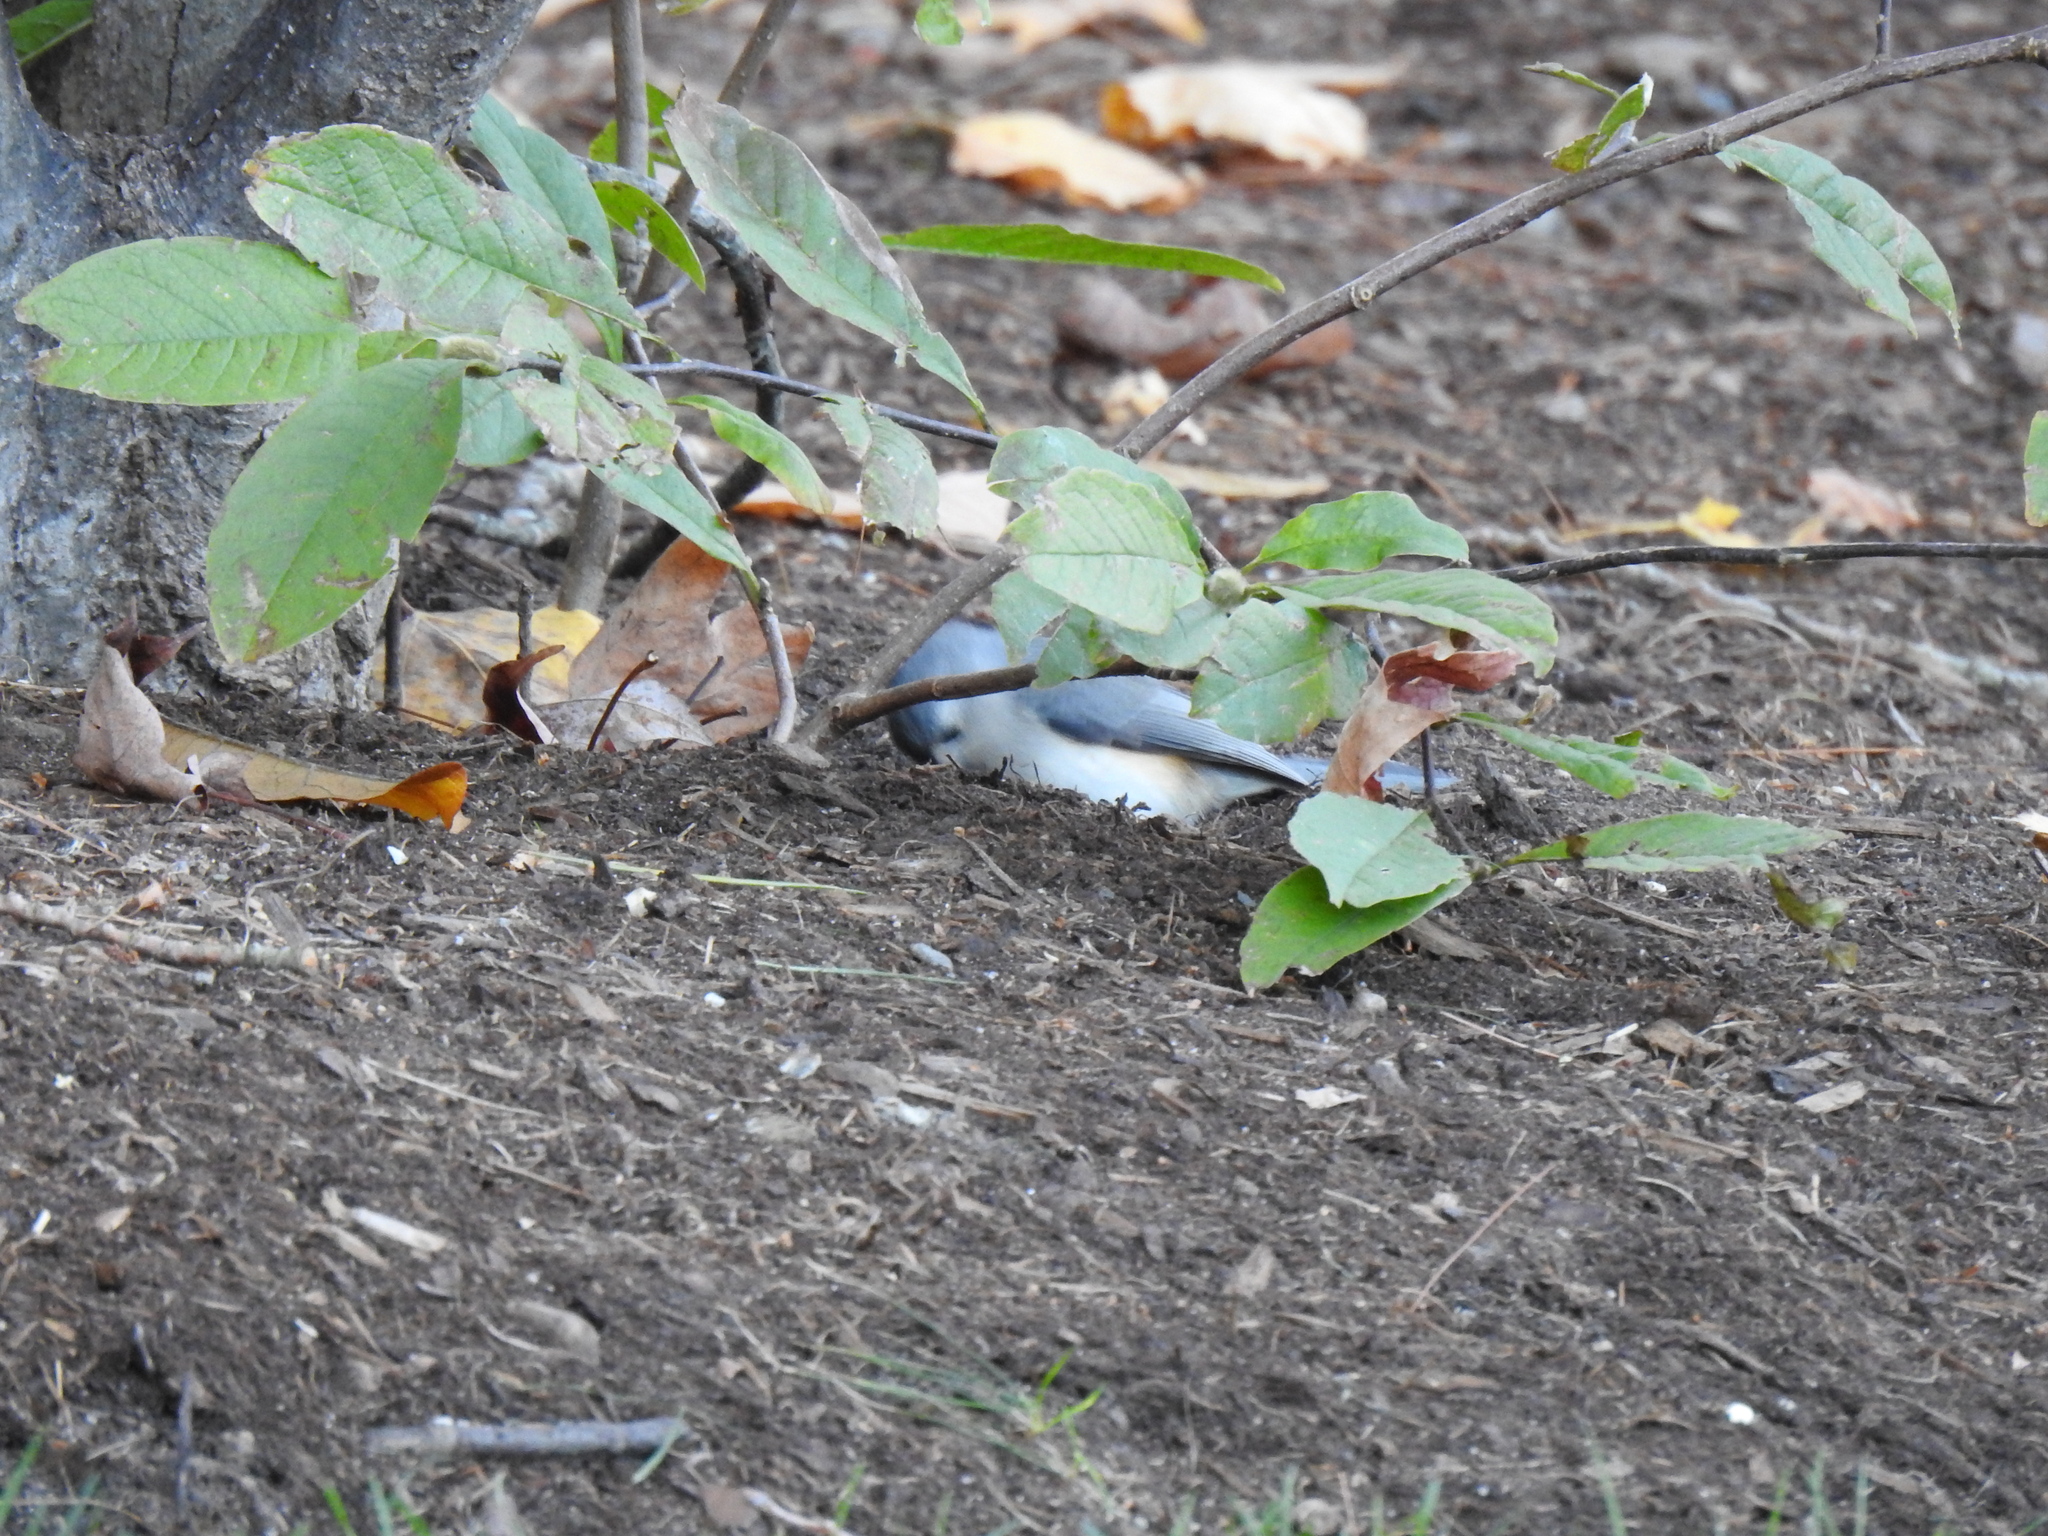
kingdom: Animalia
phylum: Chordata
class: Aves
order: Passeriformes
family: Paridae
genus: Baeolophus
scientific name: Baeolophus bicolor
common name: Tufted titmouse
